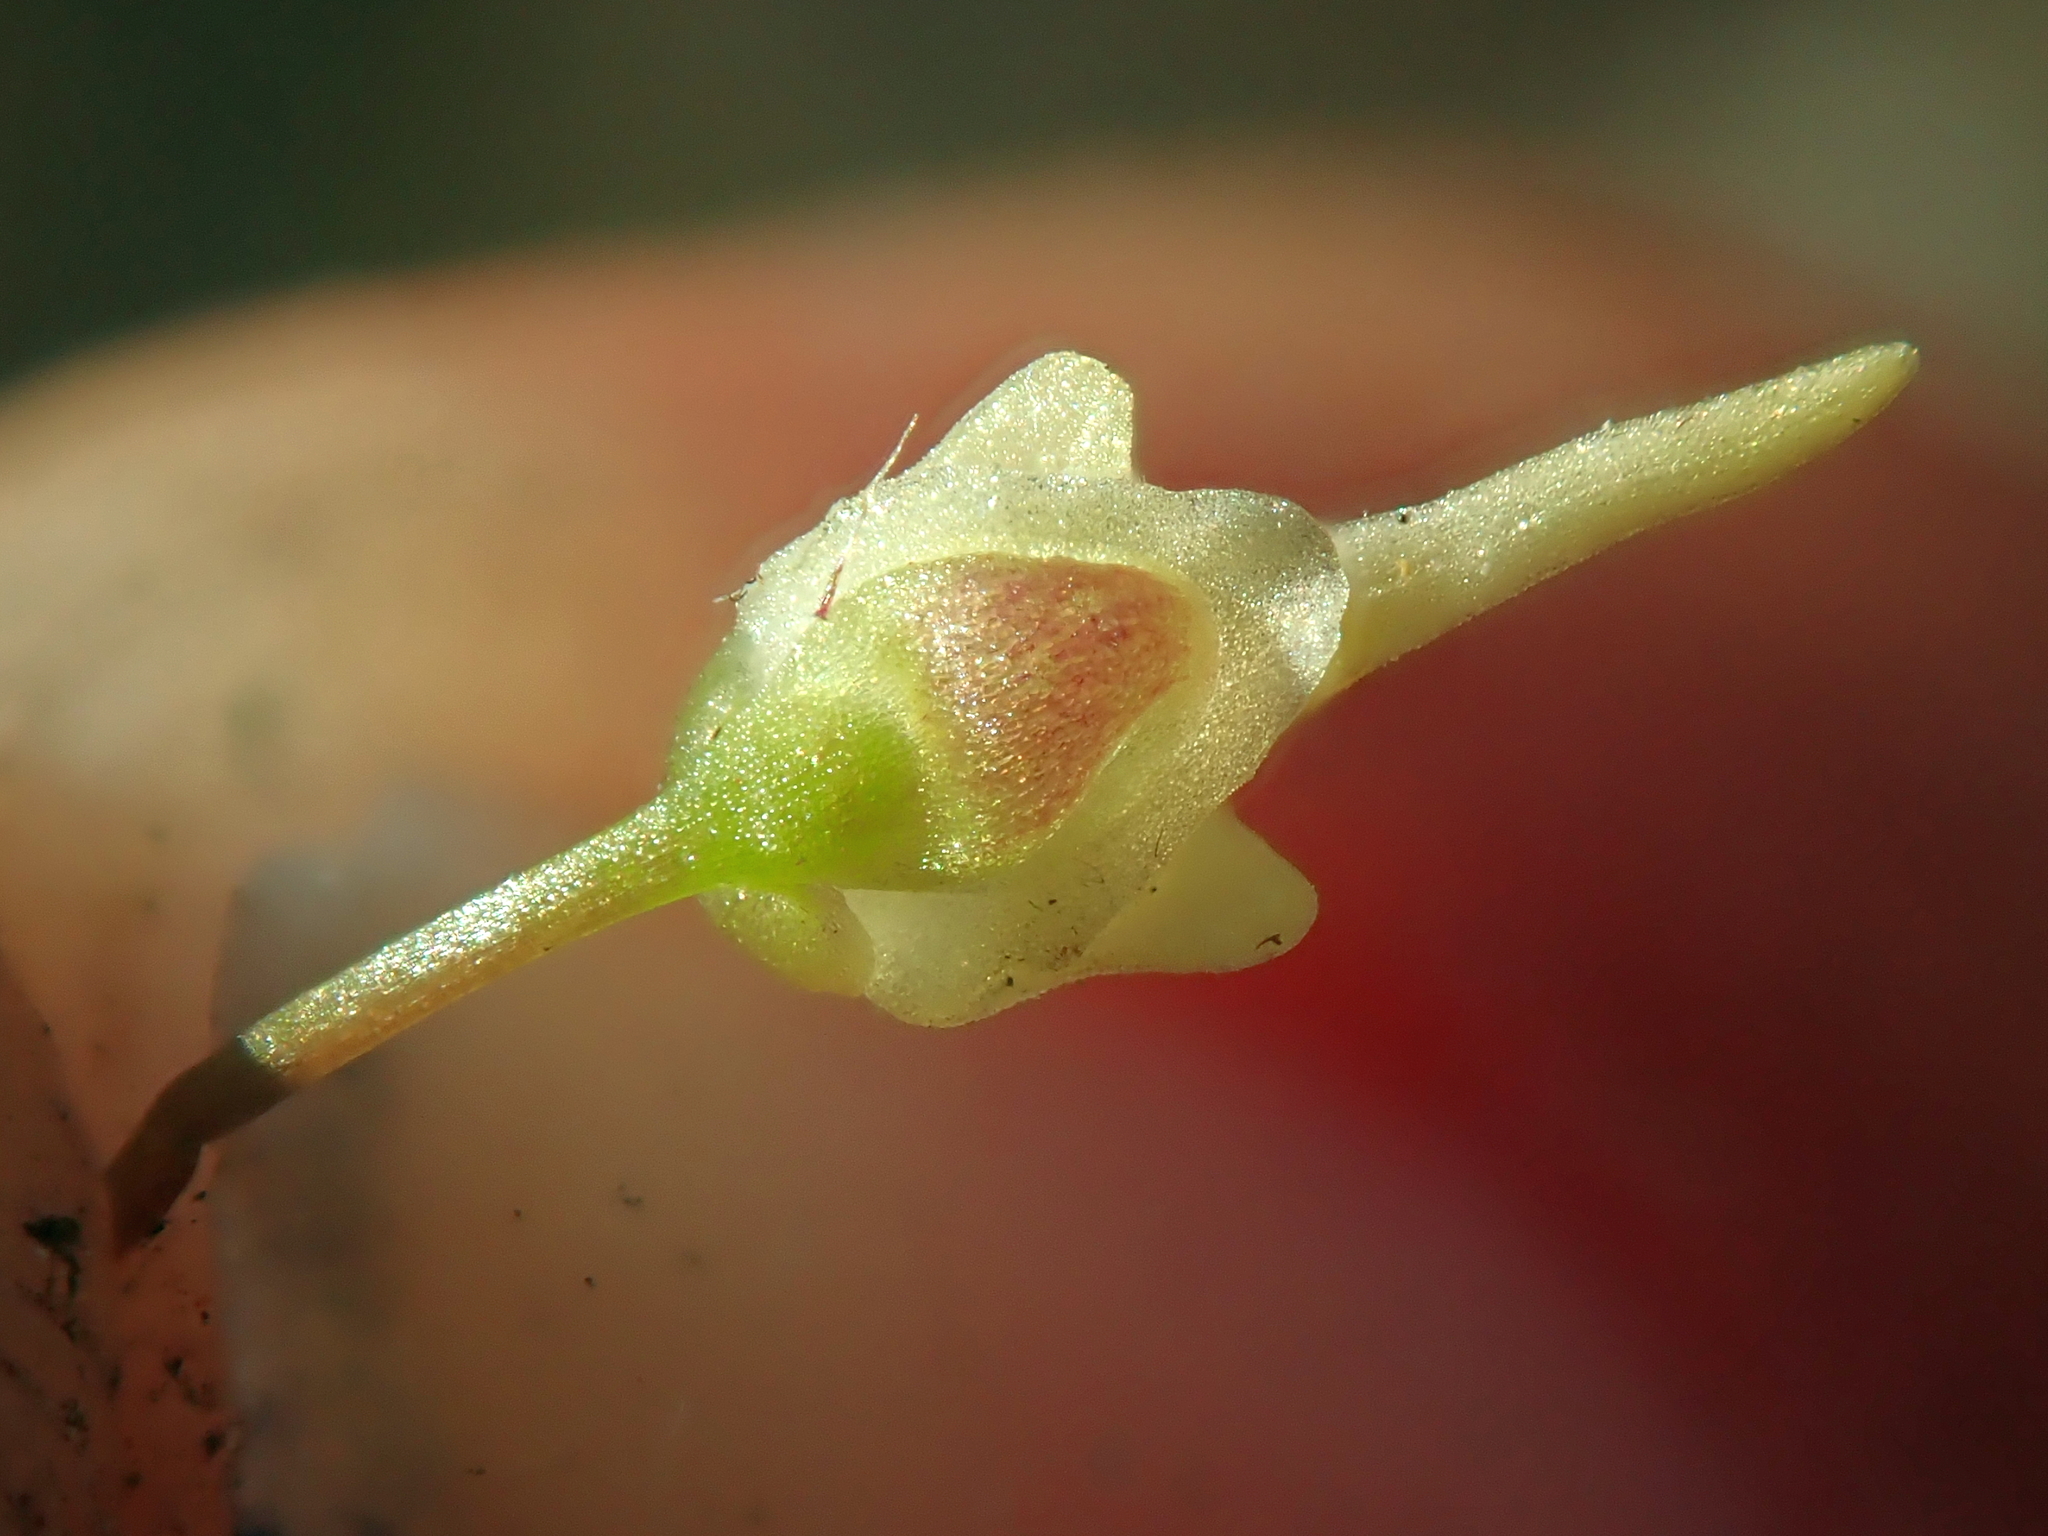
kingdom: Plantae
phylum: Tracheophyta
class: Magnoliopsida
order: Lamiales
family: Lentibulariaceae
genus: Utricularia
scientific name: Utricularia amethystina
